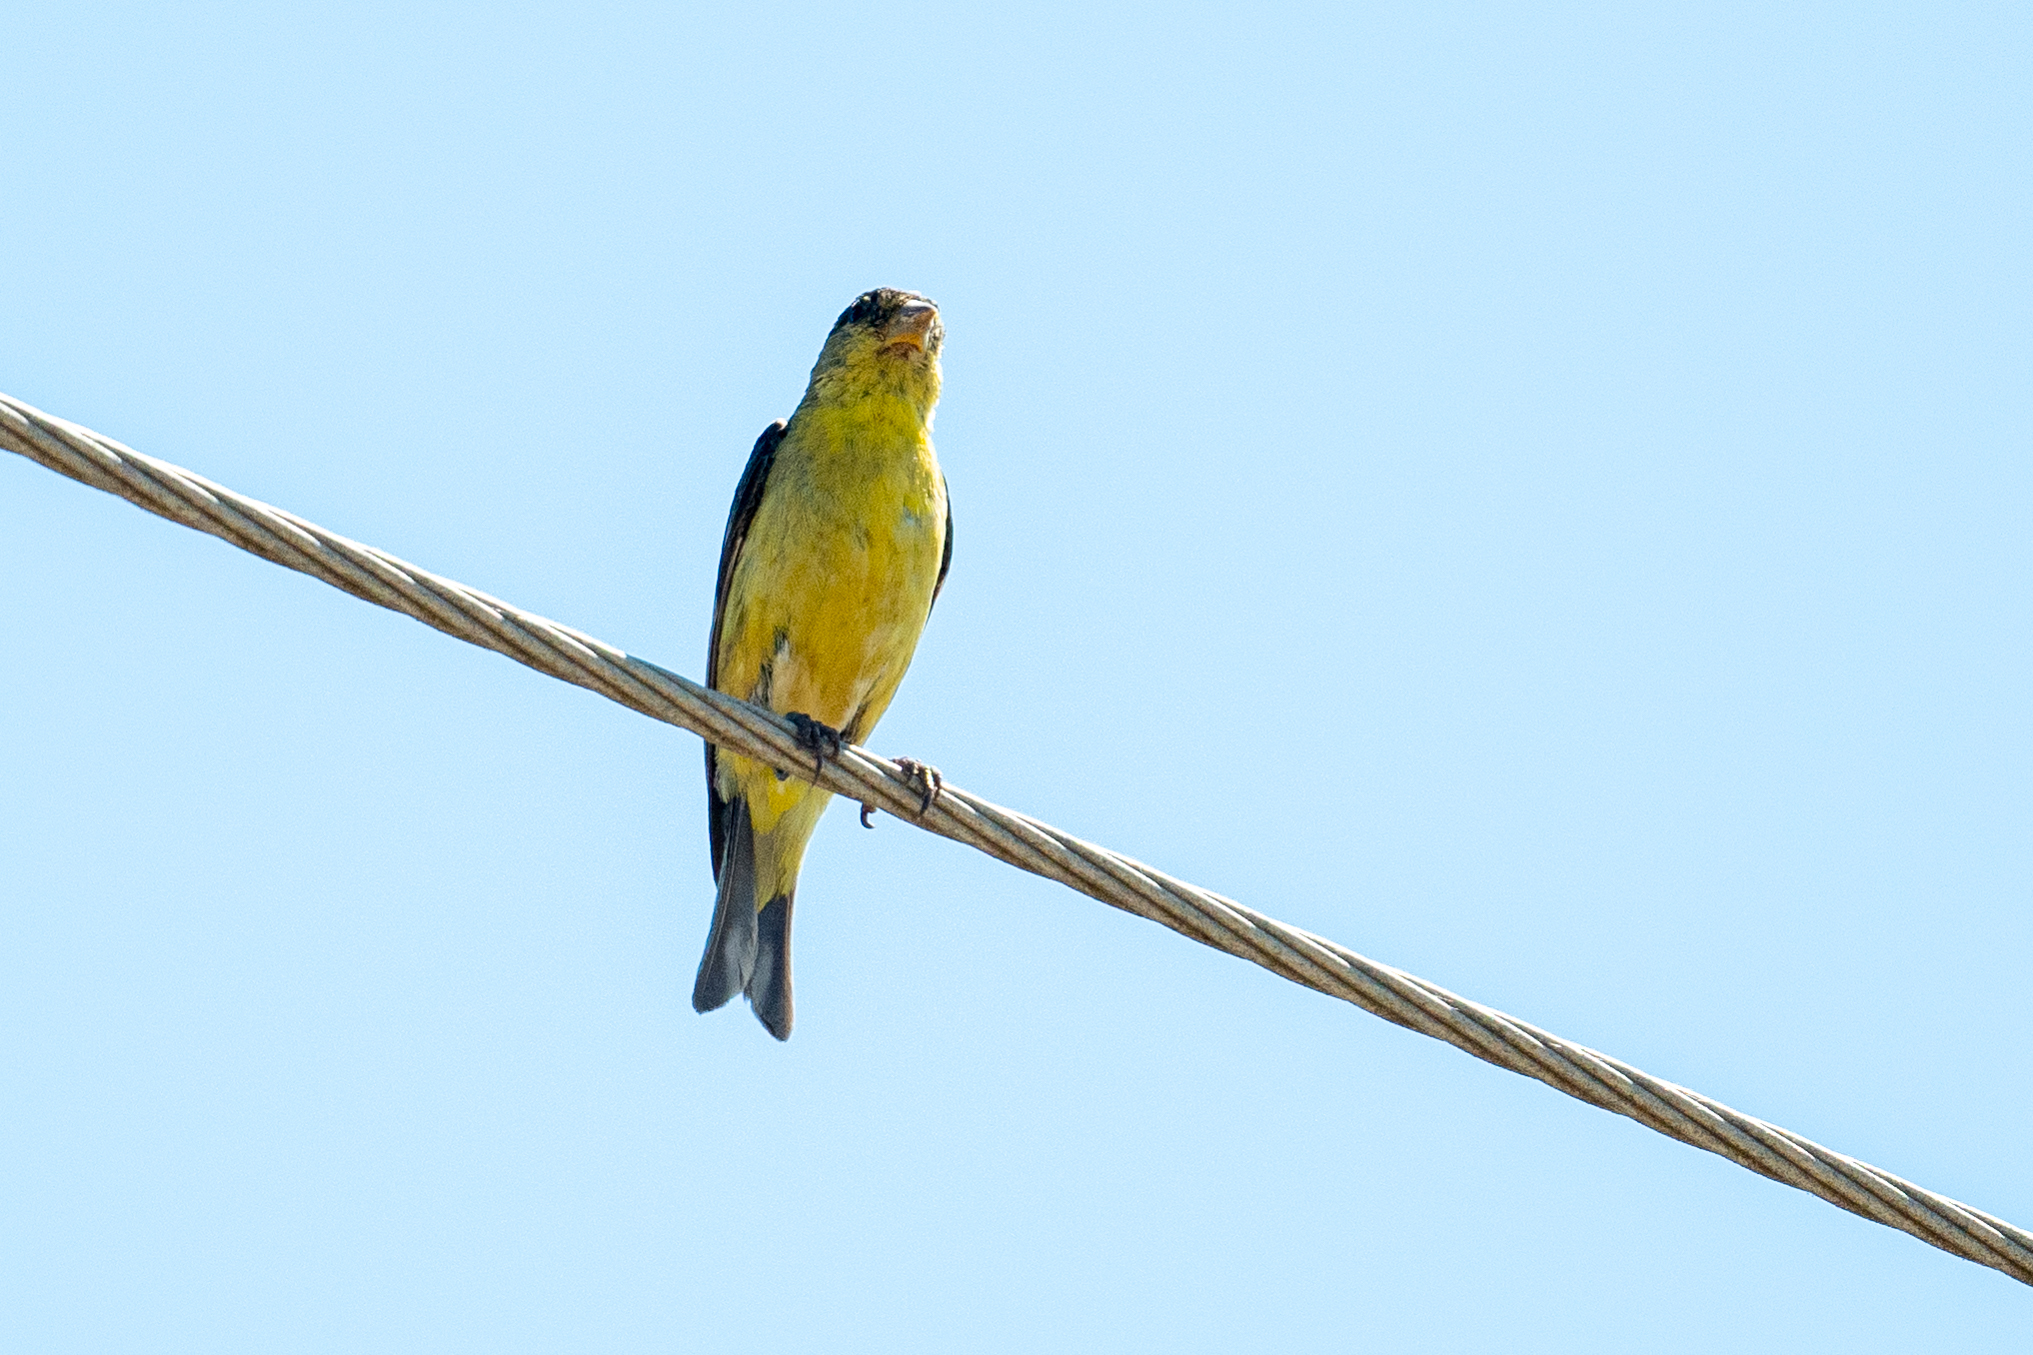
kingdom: Animalia
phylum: Chordata
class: Aves
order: Passeriformes
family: Fringillidae
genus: Spinus
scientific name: Spinus psaltria
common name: Lesser goldfinch
